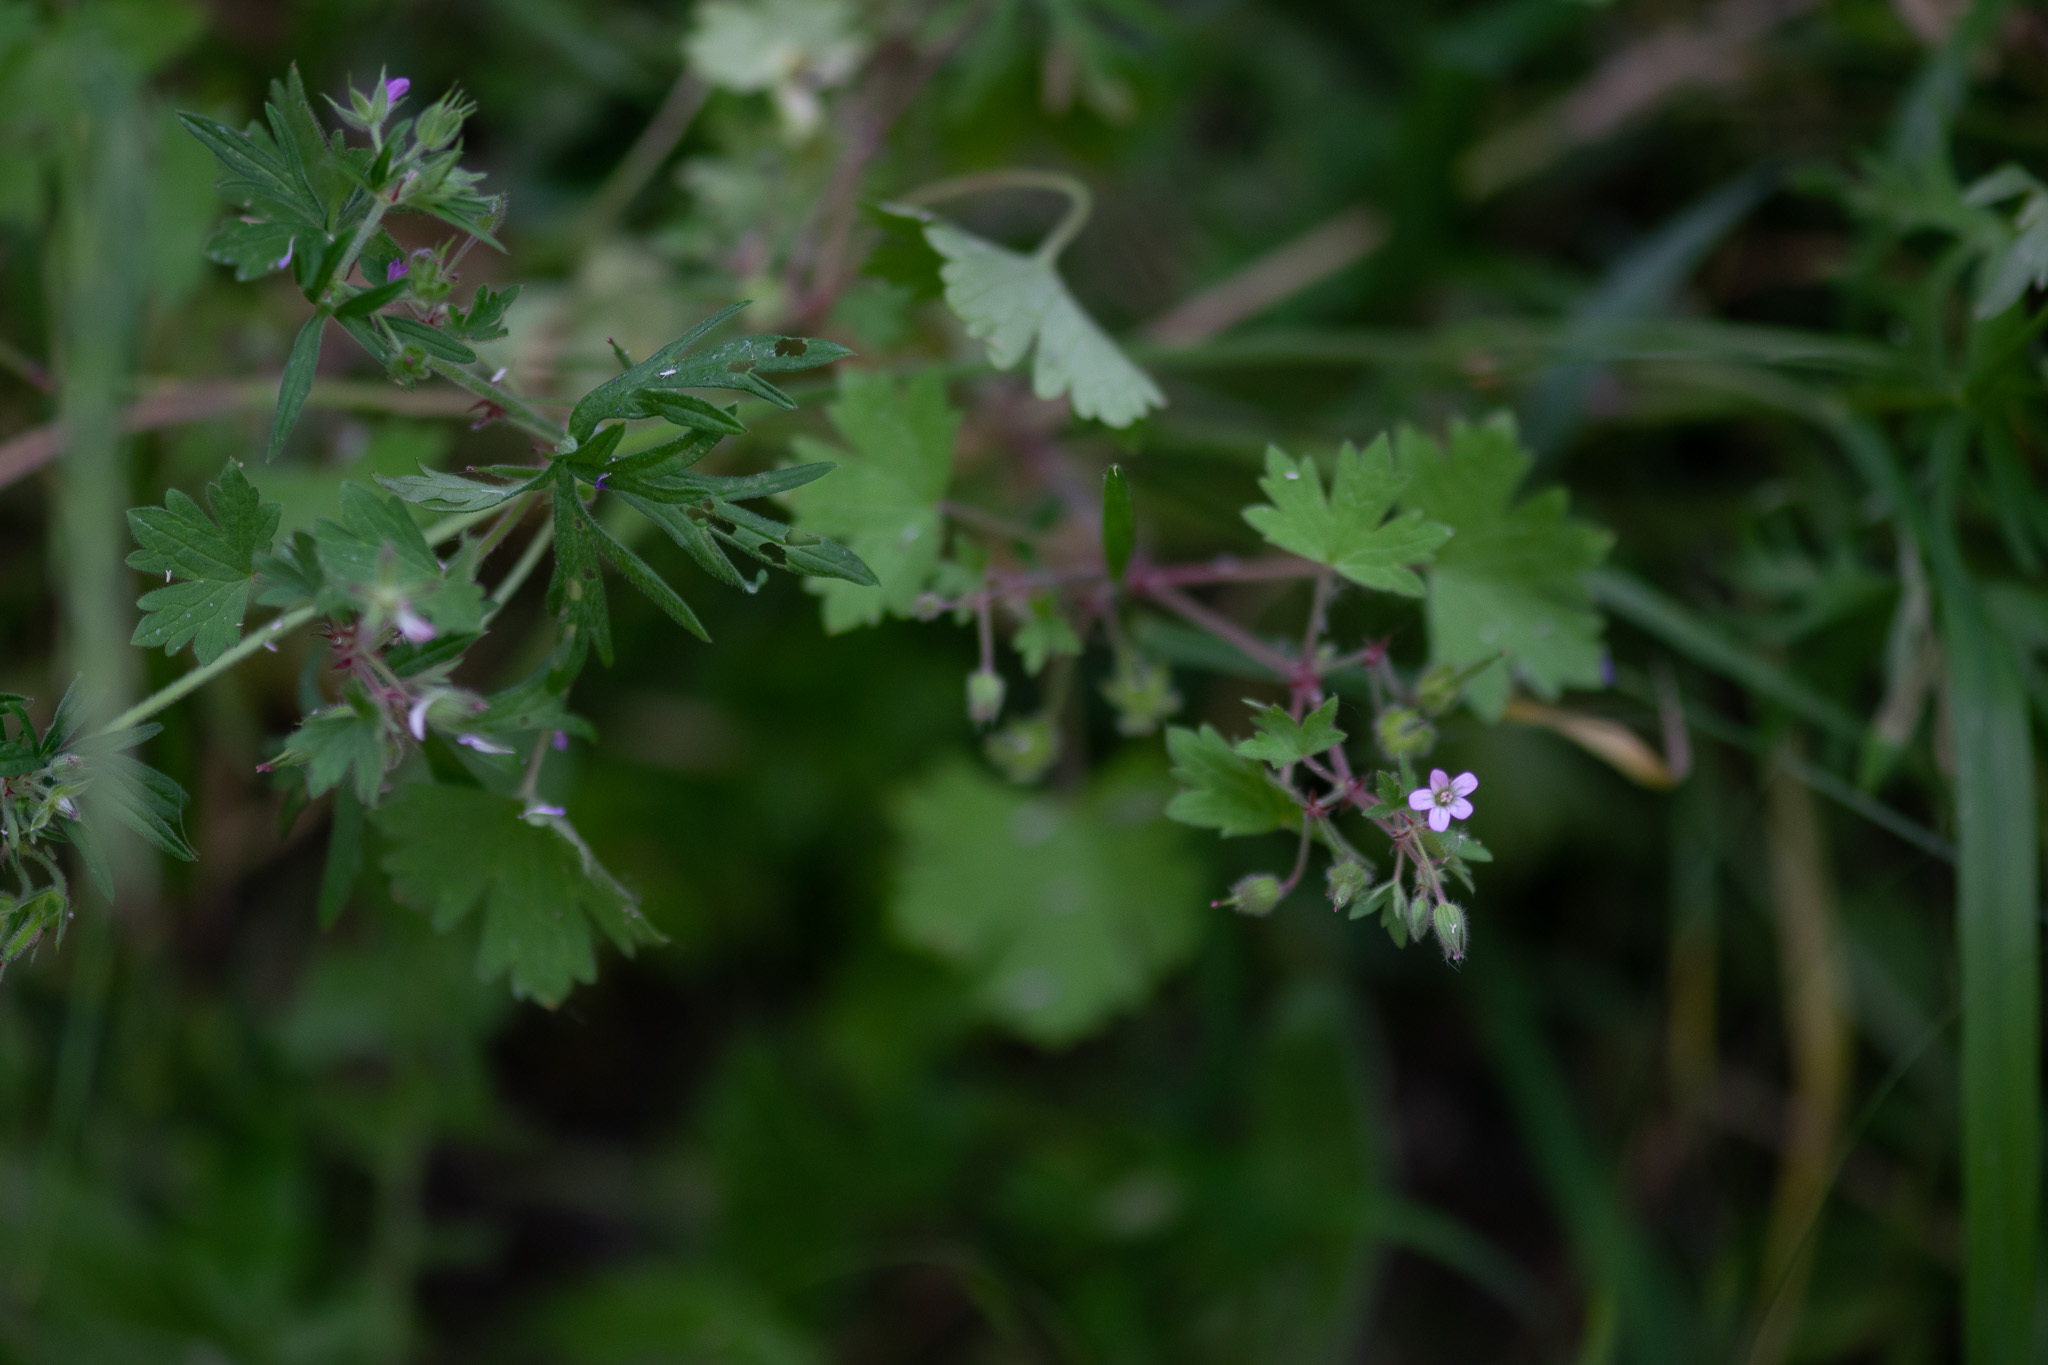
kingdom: Plantae
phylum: Tracheophyta
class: Magnoliopsida
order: Geraniales
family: Geraniaceae
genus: Geranium
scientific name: Geranium rotundifolium
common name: Round-leaved crane's-bill
